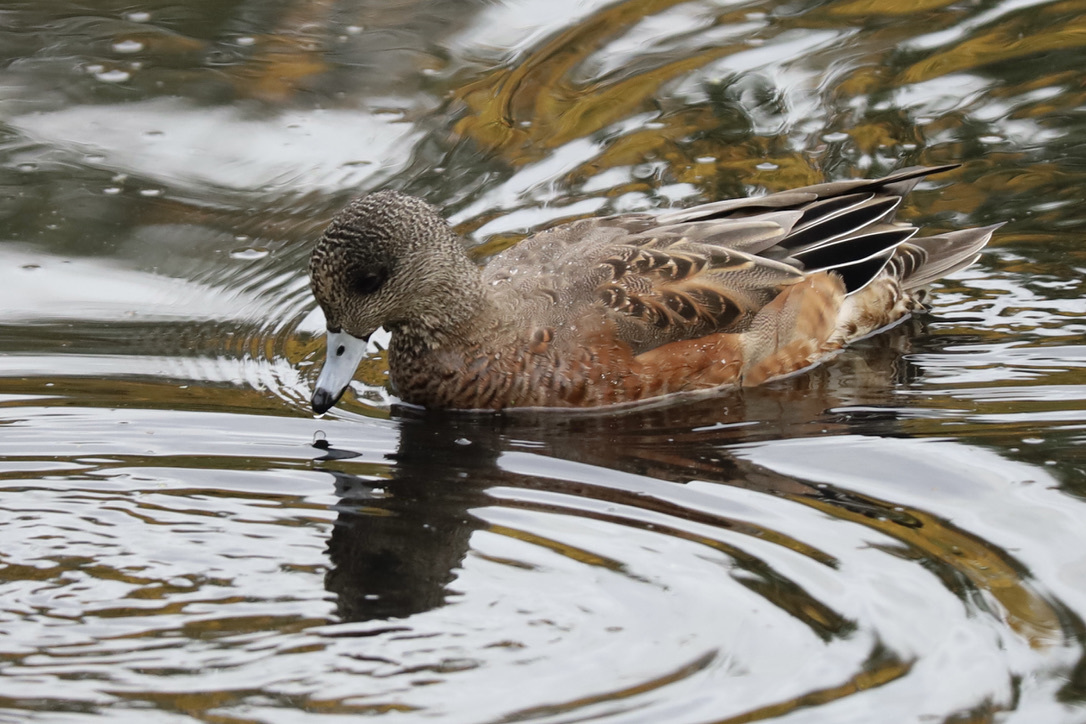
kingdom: Animalia
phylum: Chordata
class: Aves
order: Anseriformes
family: Anatidae
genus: Mareca
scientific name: Mareca americana
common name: American wigeon
